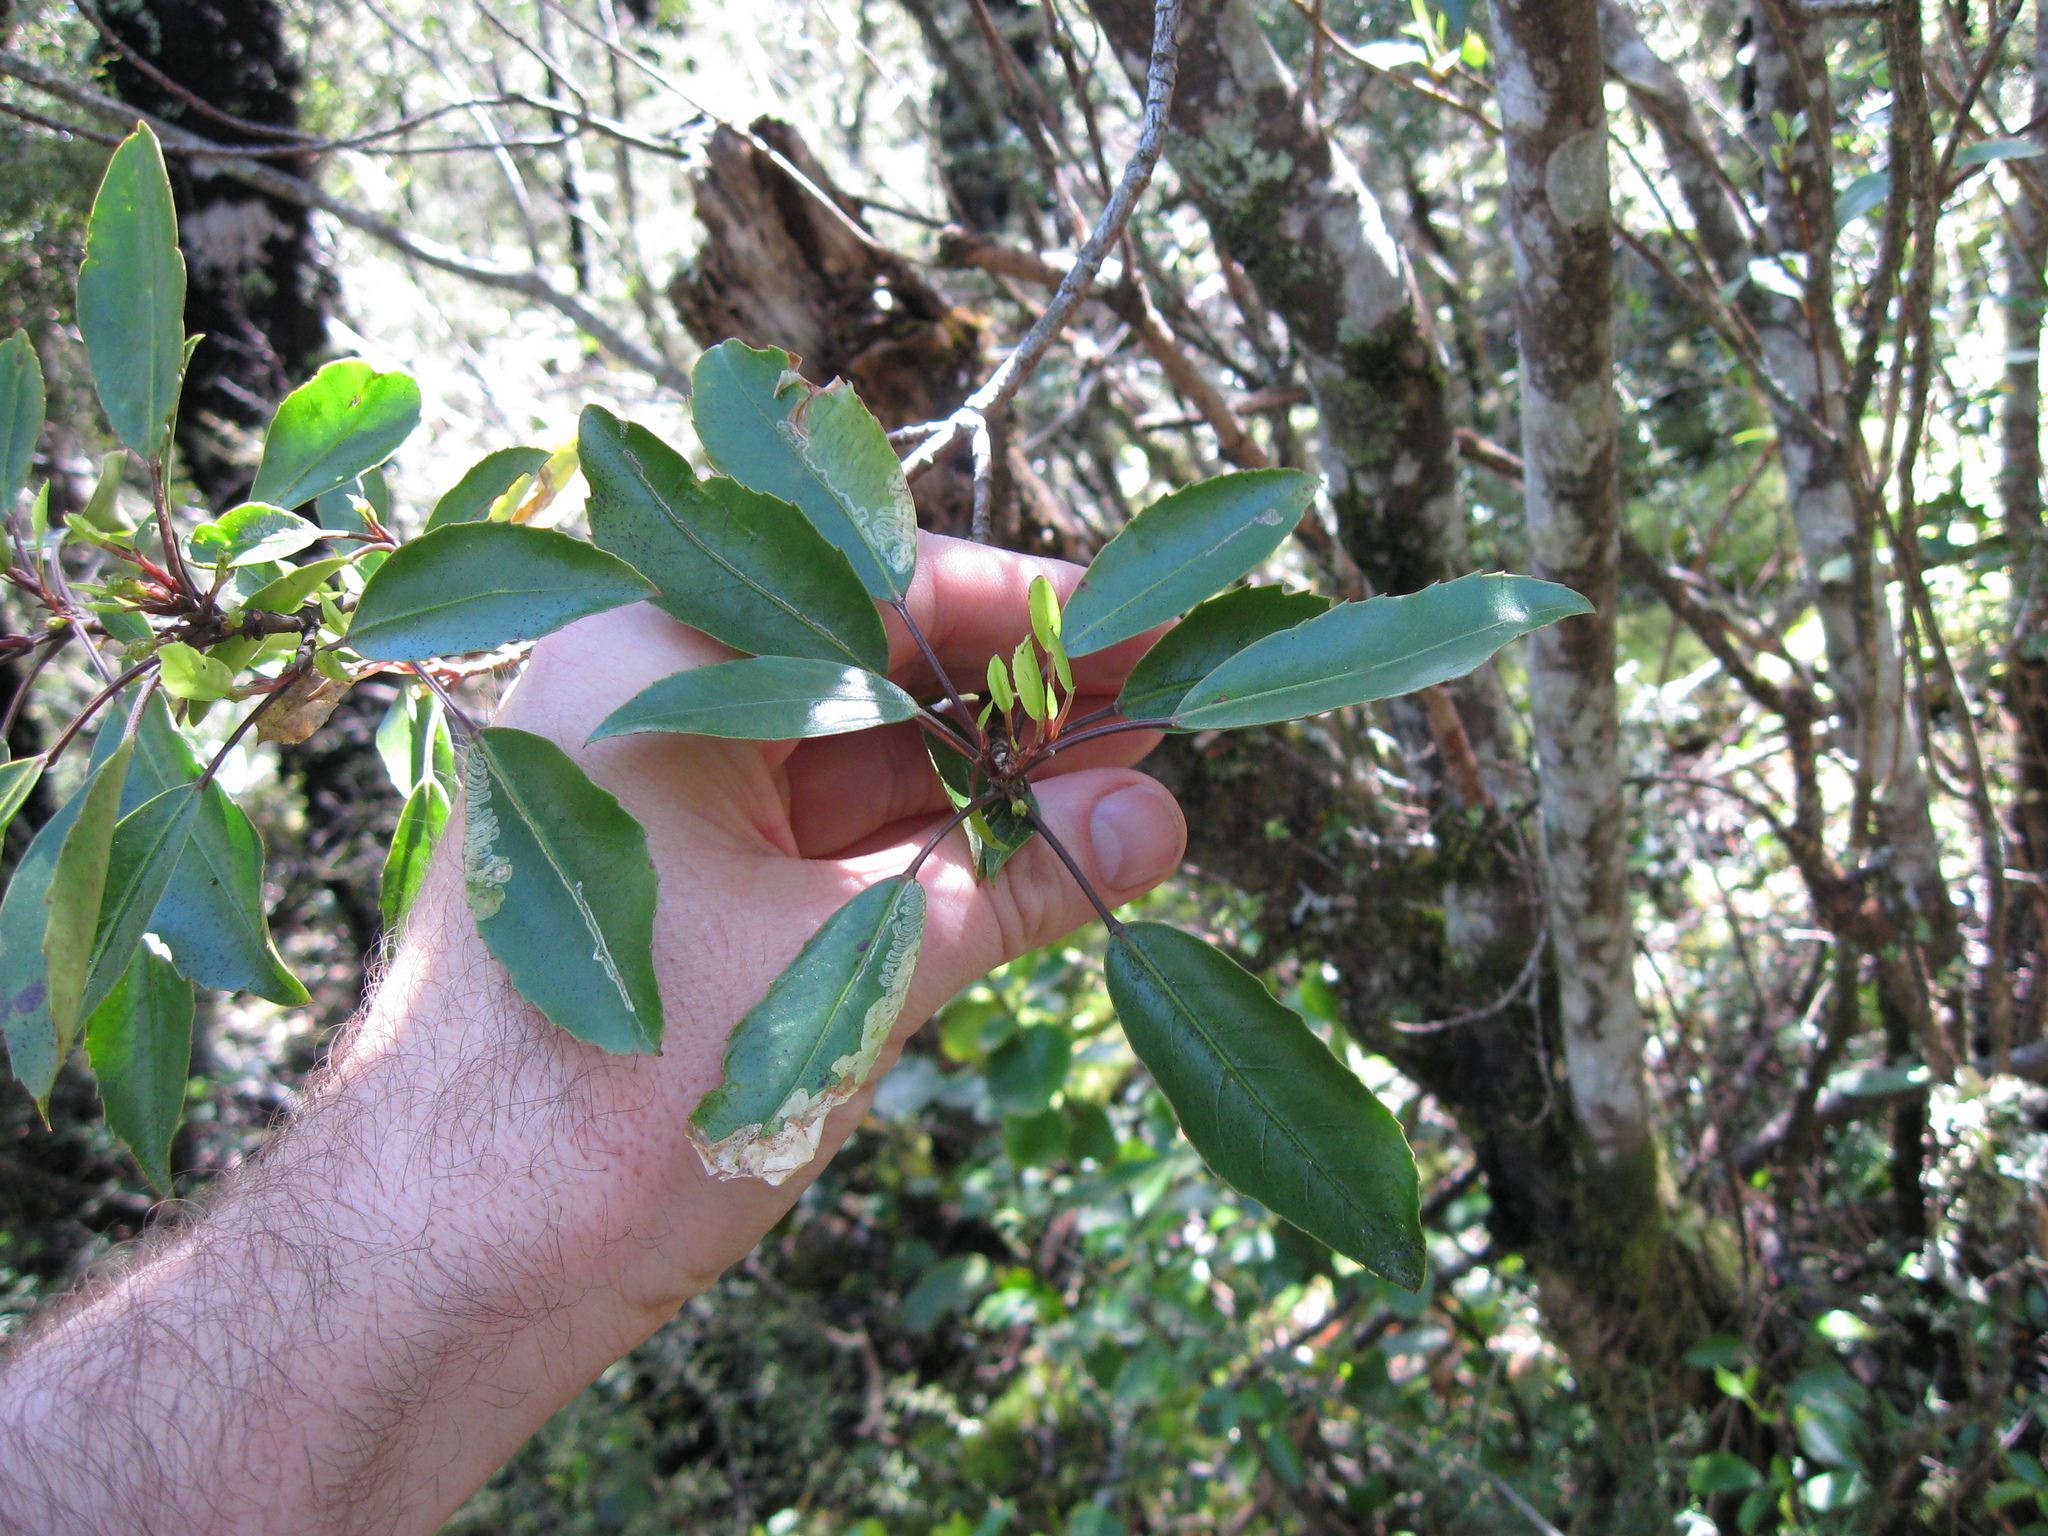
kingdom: Plantae
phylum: Tracheophyta
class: Magnoliopsida
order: Apiales
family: Araliaceae
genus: Raukaua
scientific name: Raukaua simplex
